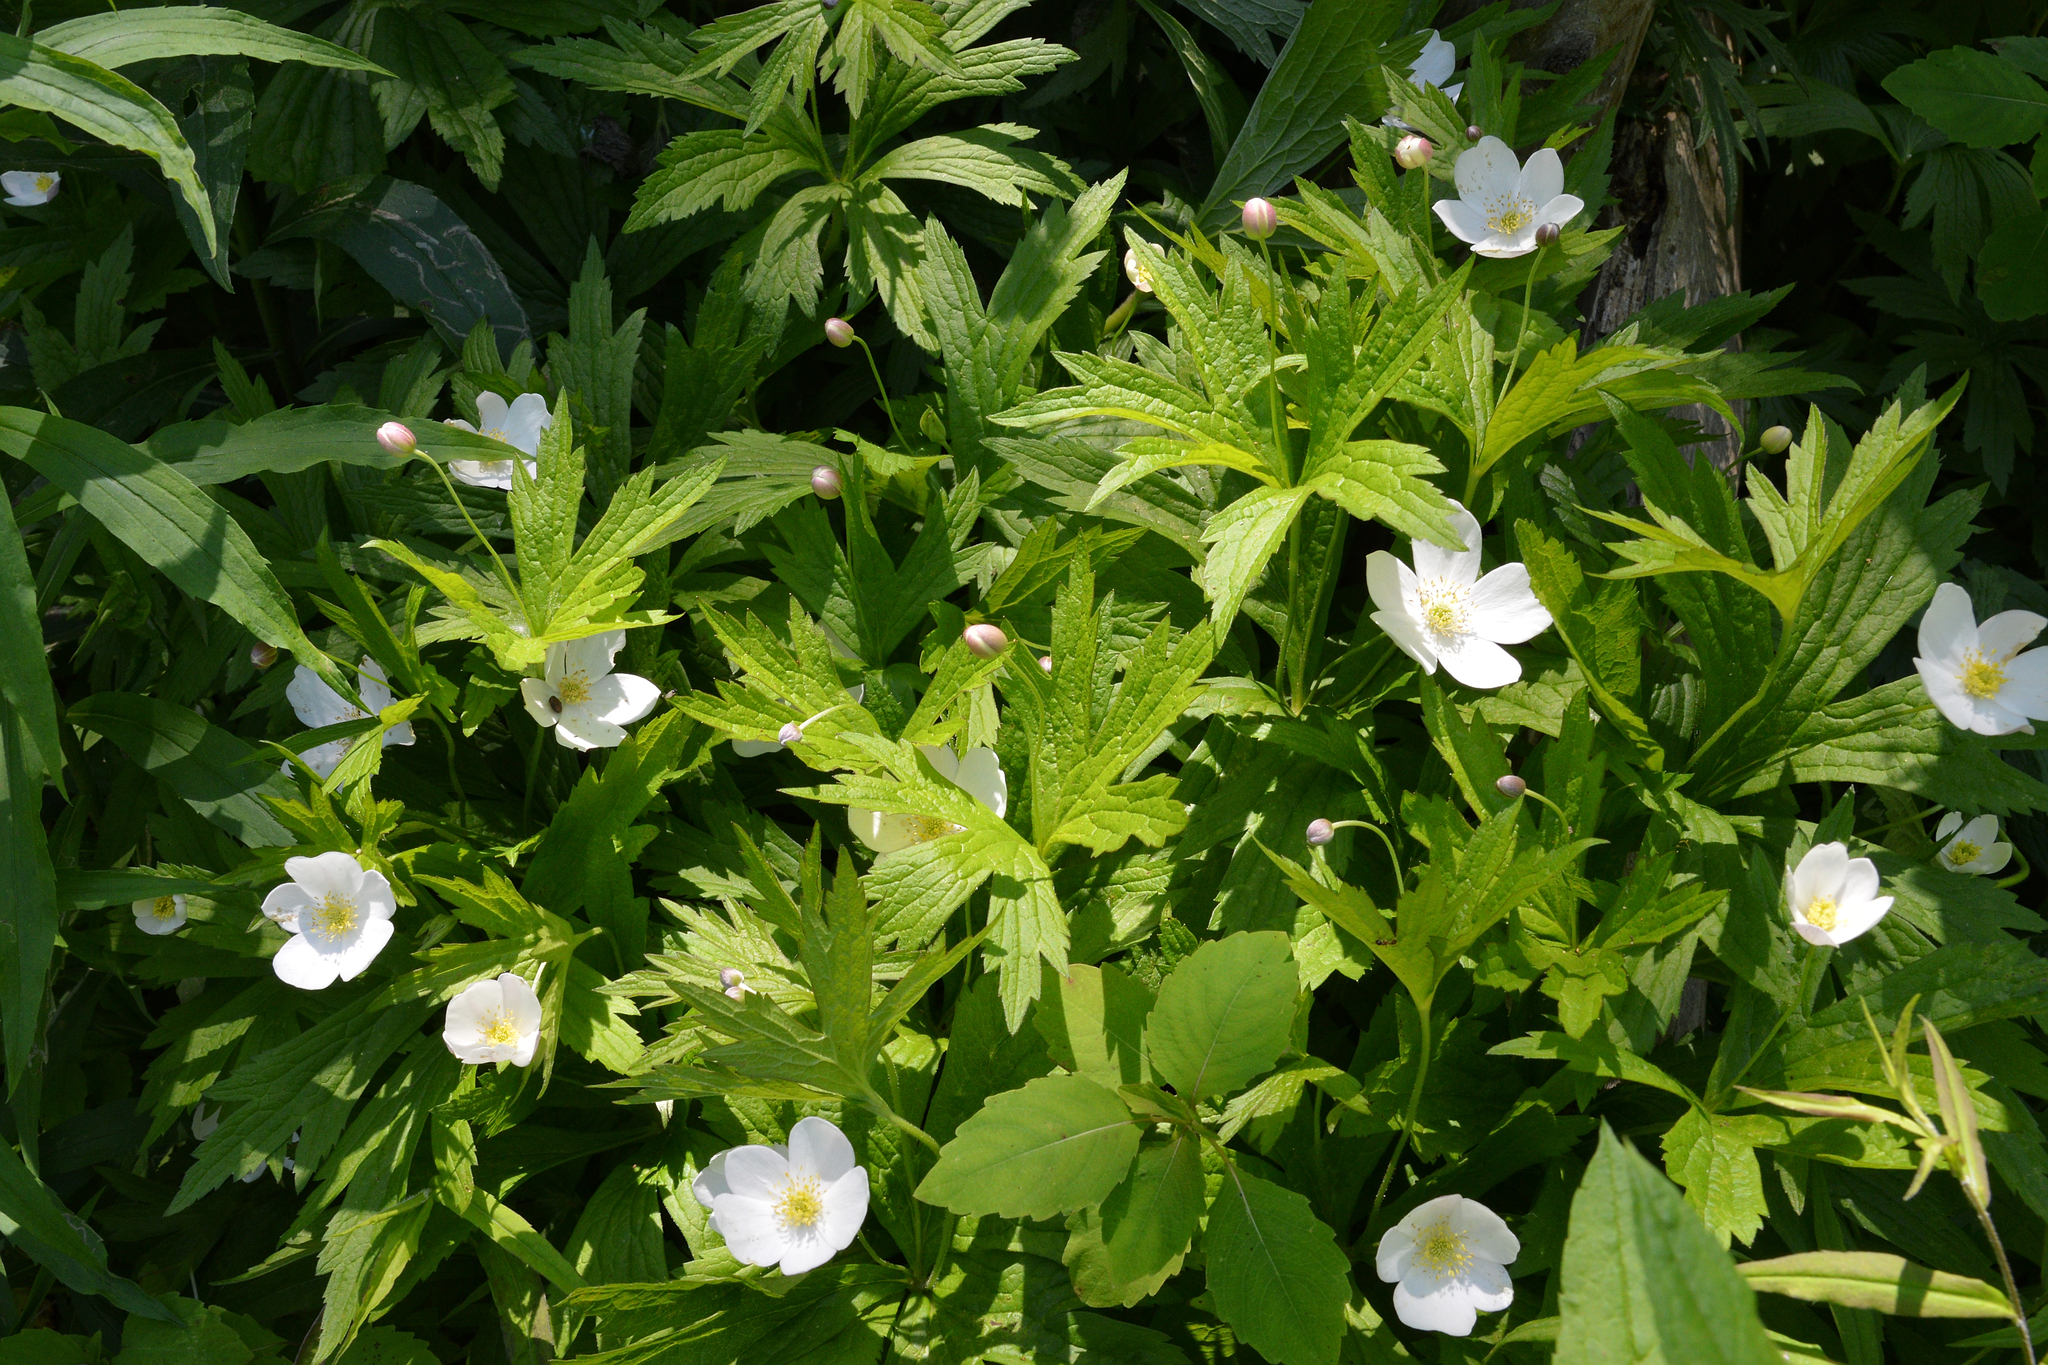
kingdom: Plantae
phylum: Tracheophyta
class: Magnoliopsida
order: Ranunculales
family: Ranunculaceae
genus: Anemonastrum
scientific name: Anemonastrum canadense
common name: Canada anemone
